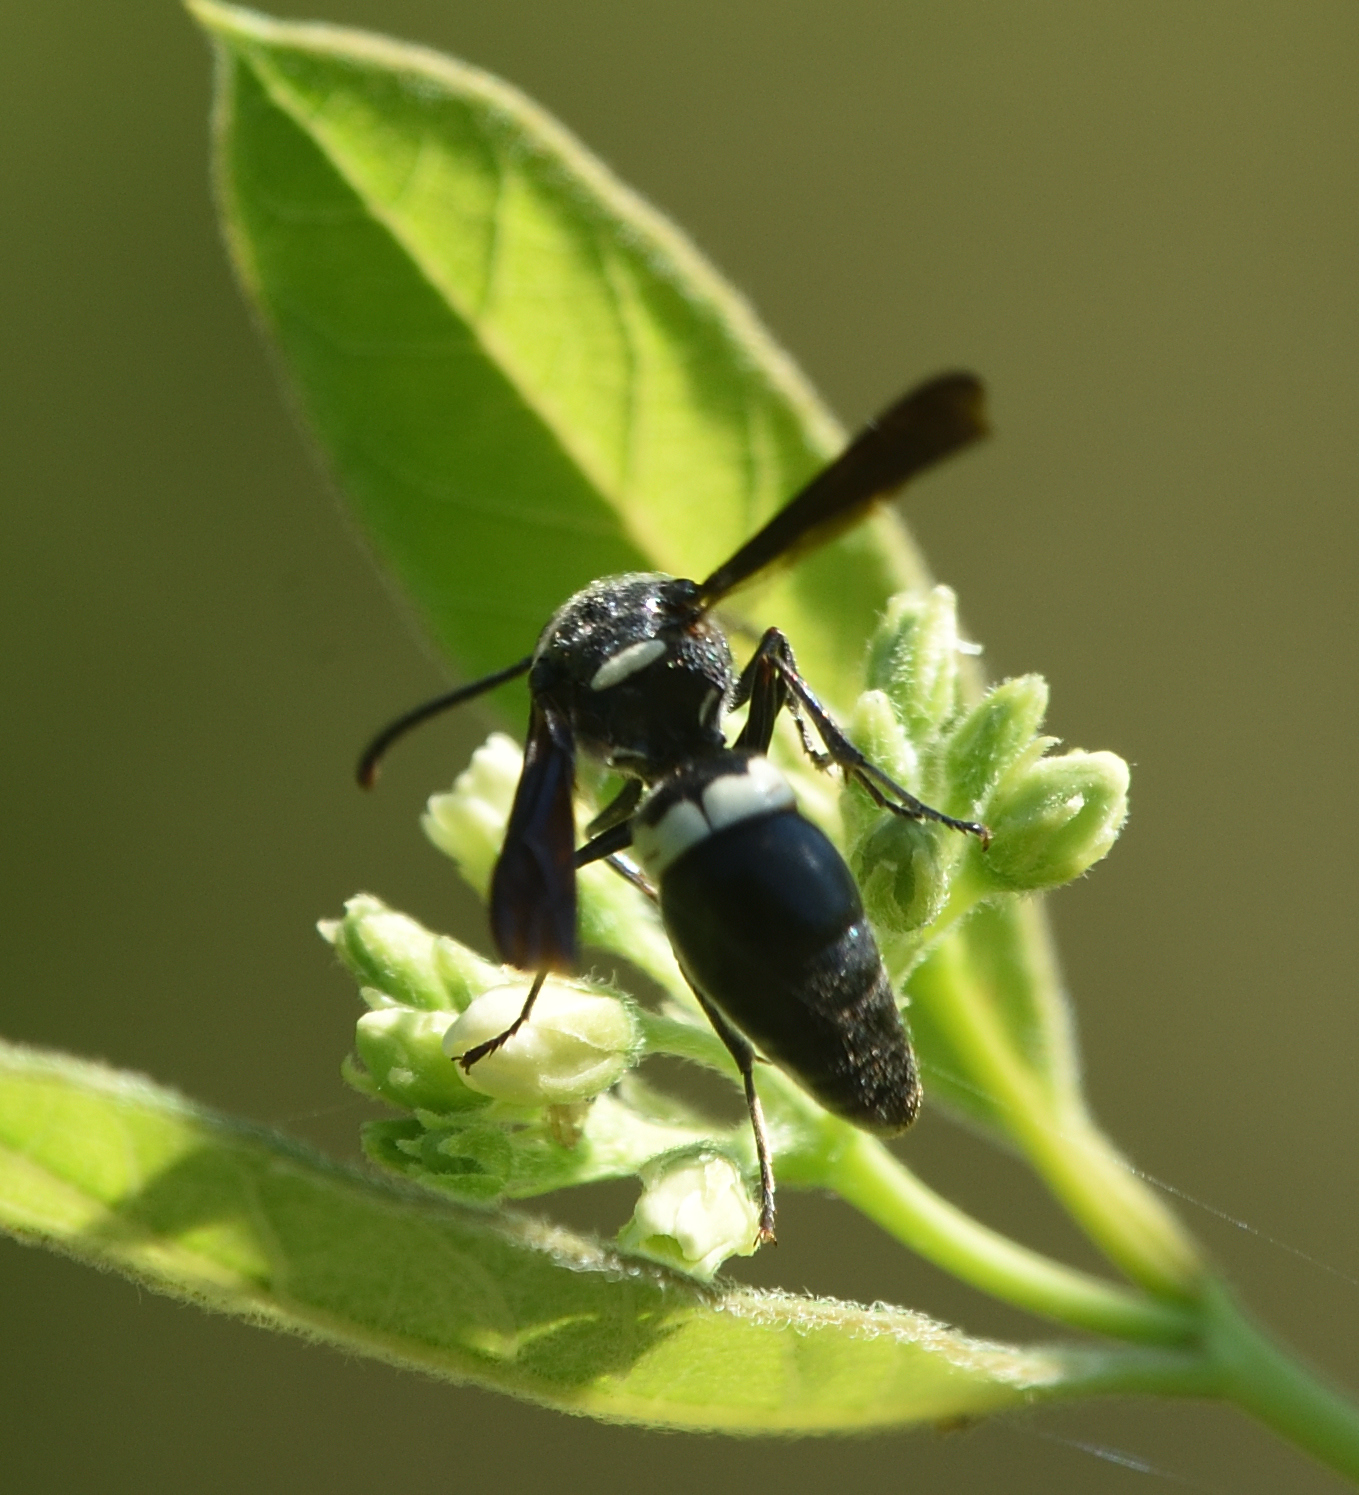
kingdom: Animalia
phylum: Arthropoda
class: Insecta
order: Hymenoptera
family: Eumenidae
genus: Monobia
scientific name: Monobia quadridens
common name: Four-toothed mason wasp
